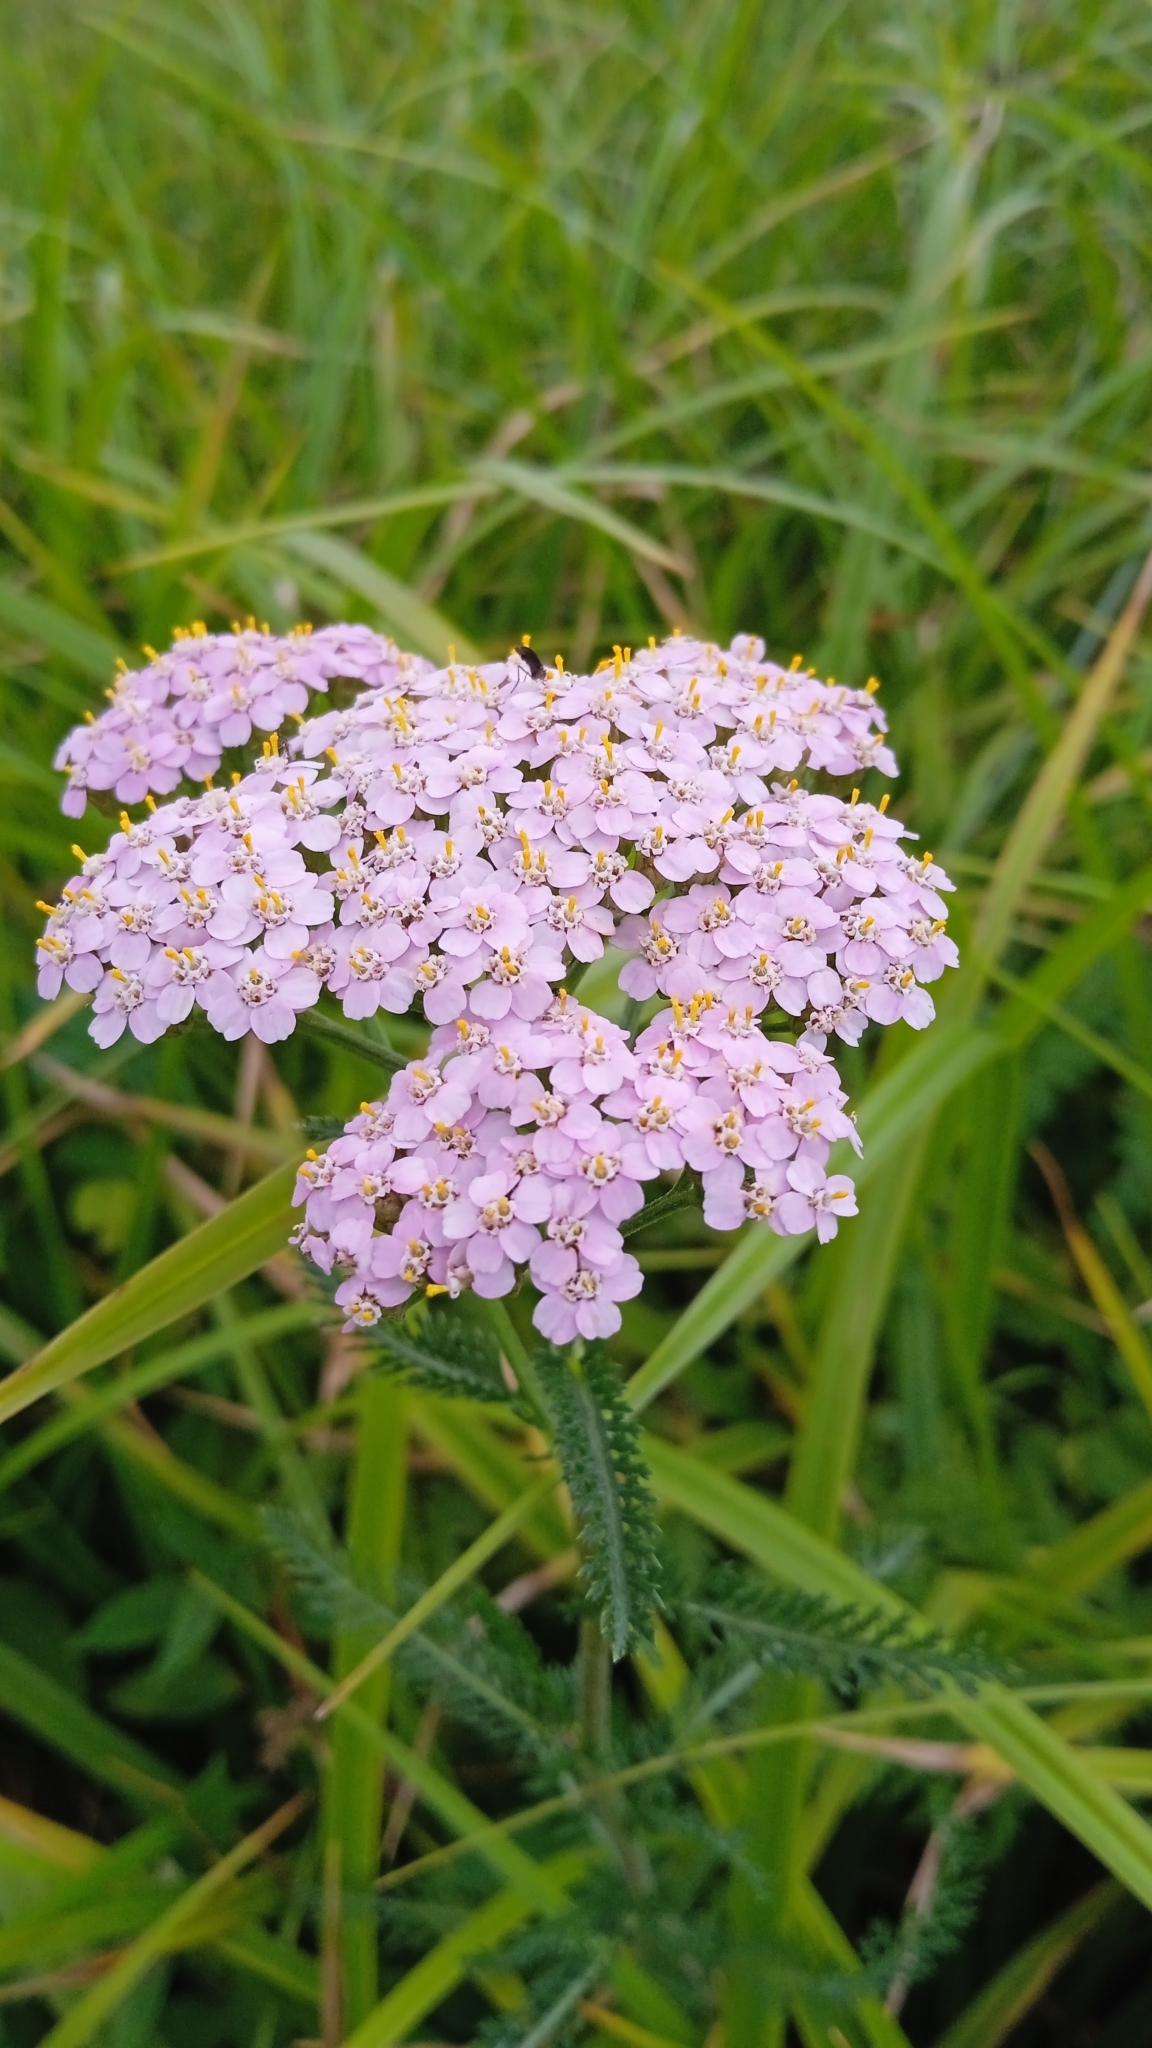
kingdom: Plantae
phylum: Tracheophyta
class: Magnoliopsida
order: Asterales
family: Asteraceae
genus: Achillea
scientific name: Achillea millefolium
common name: Yarrow
